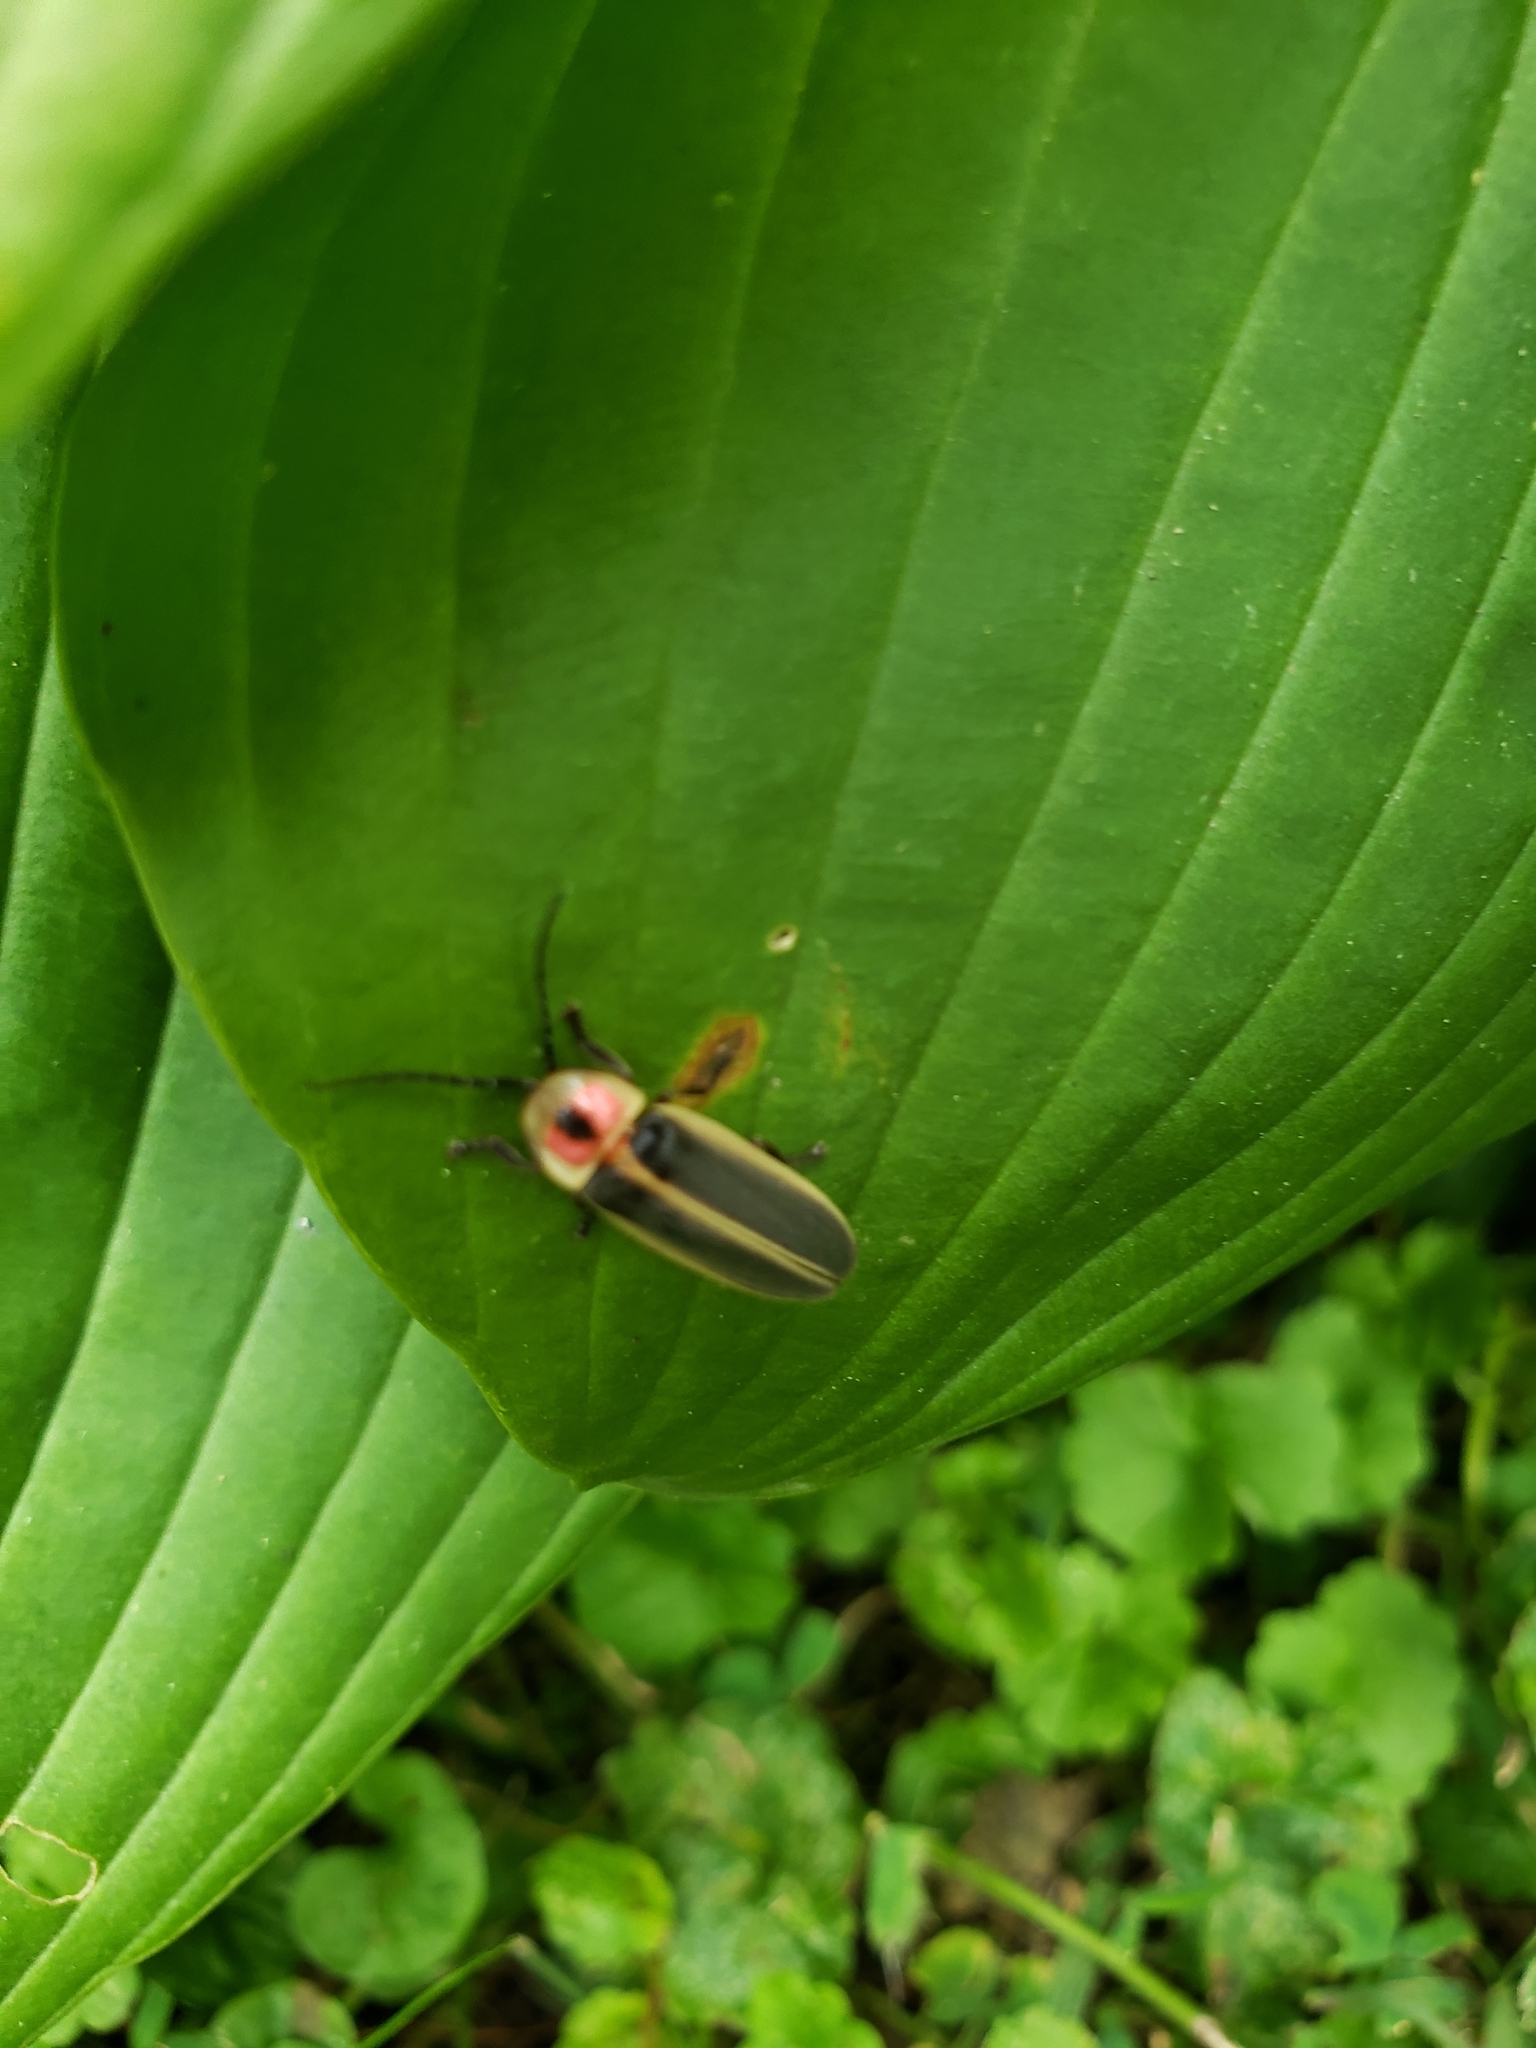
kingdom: Animalia
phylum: Arthropoda
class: Insecta
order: Coleoptera
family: Lampyridae
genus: Photinus
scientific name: Photinus pyralis
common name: Big dipper firefly
